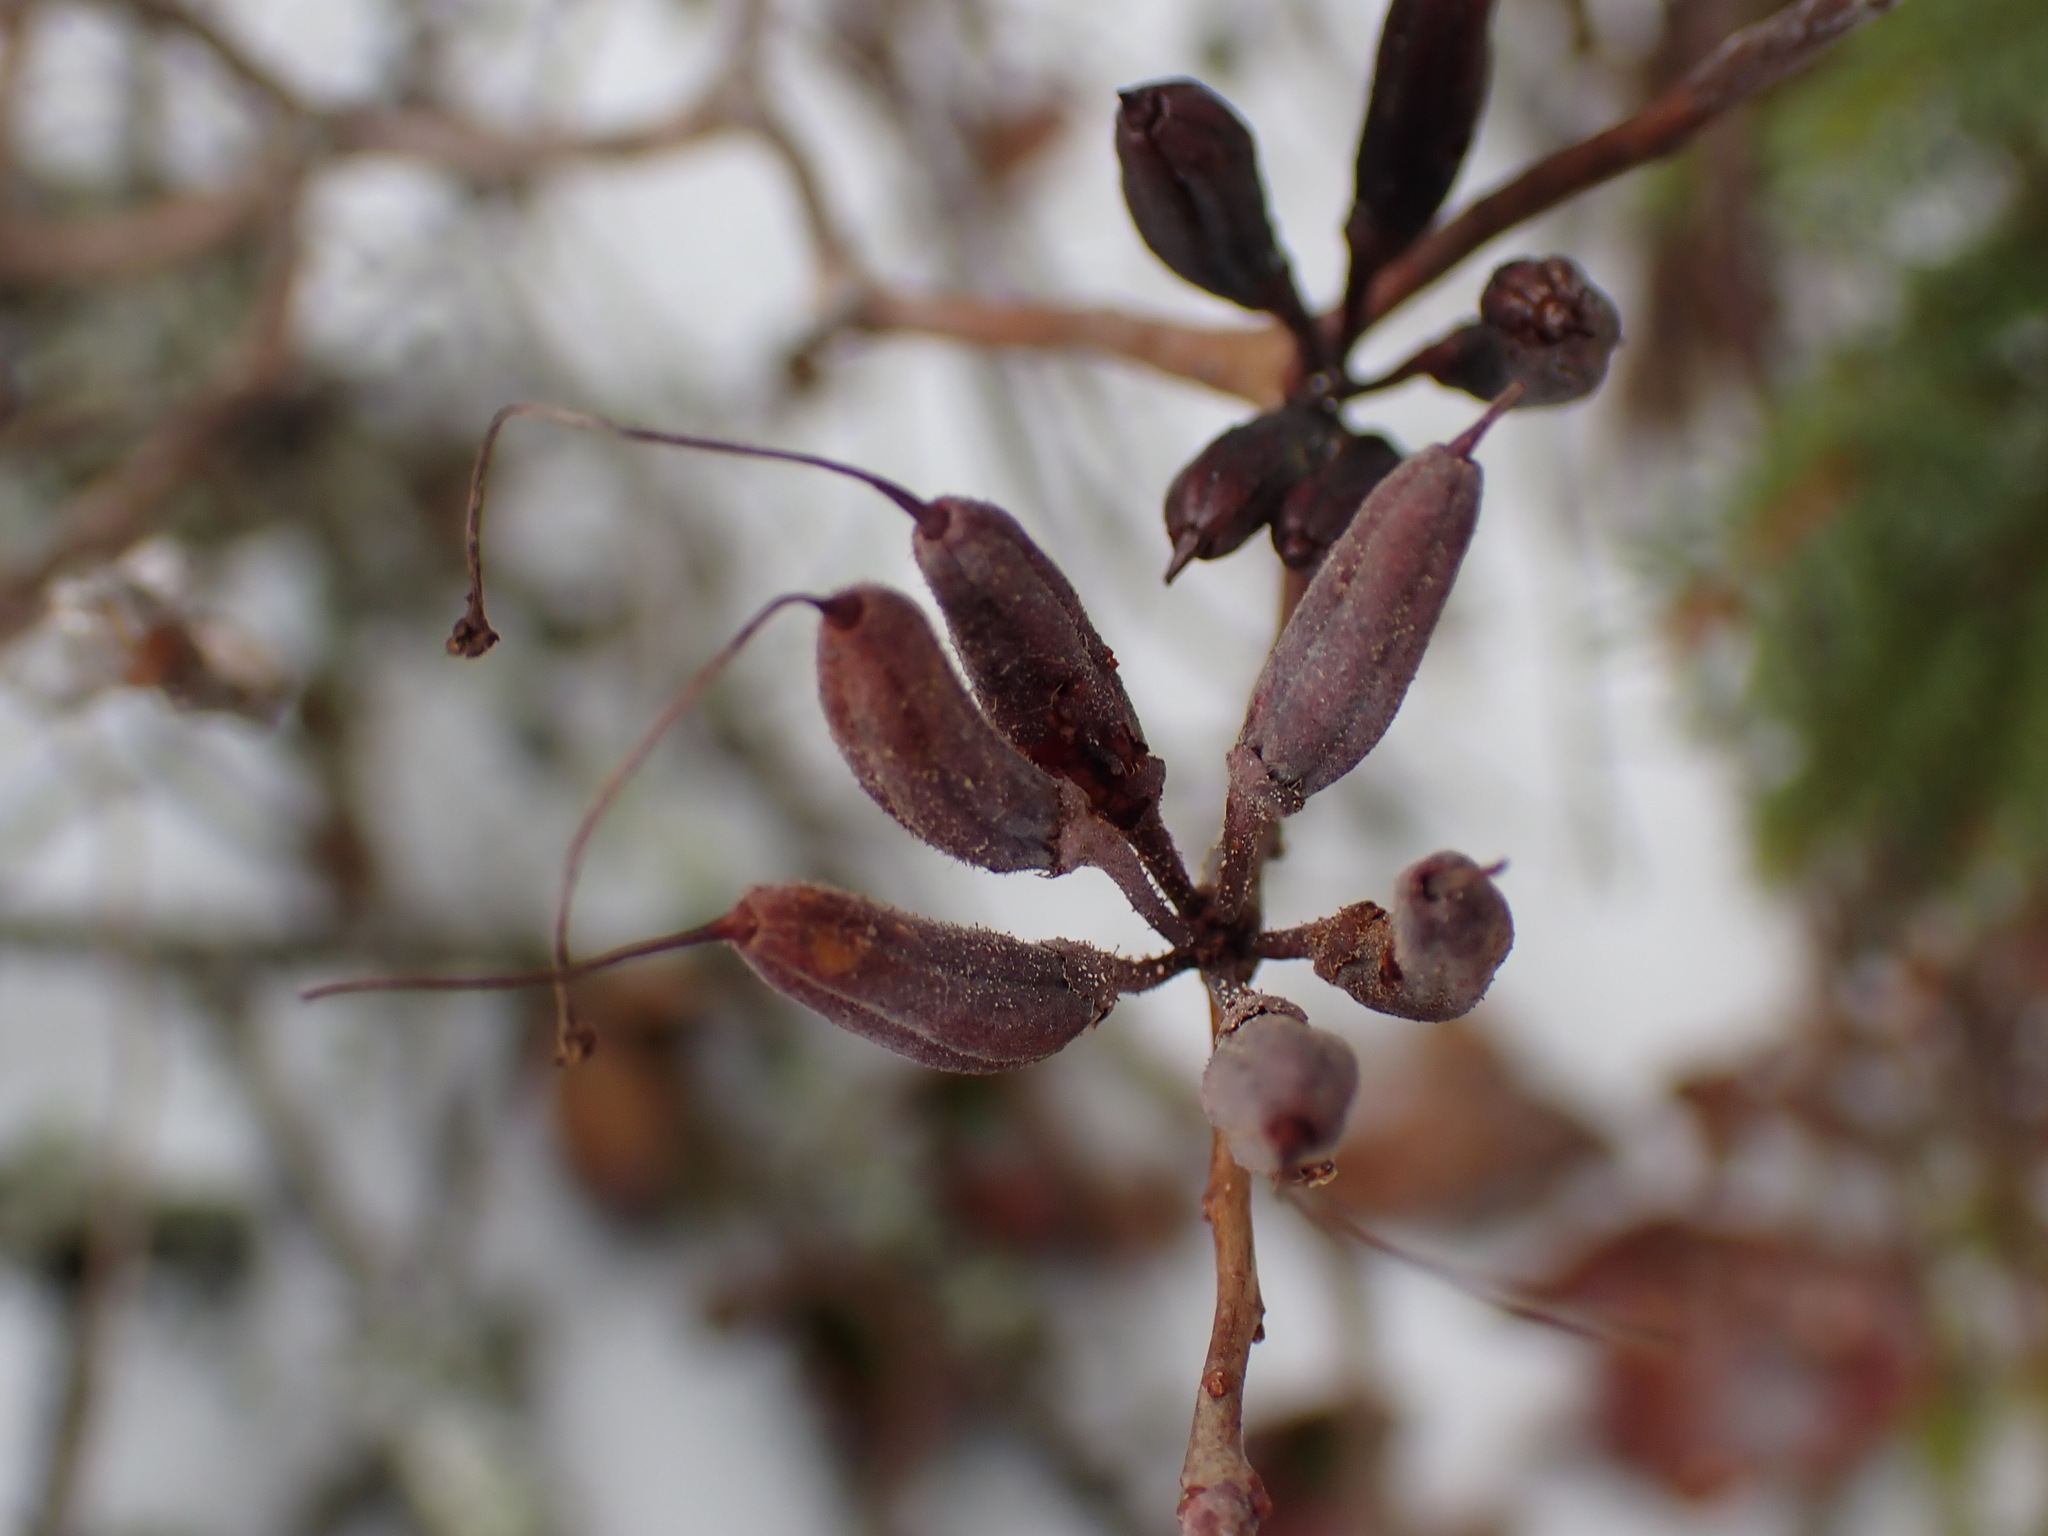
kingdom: Plantae
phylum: Tracheophyta
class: Magnoliopsida
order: Ericales
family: Ericaceae
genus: Rhododendron
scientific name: Rhododendron canadense
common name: Rhodora
